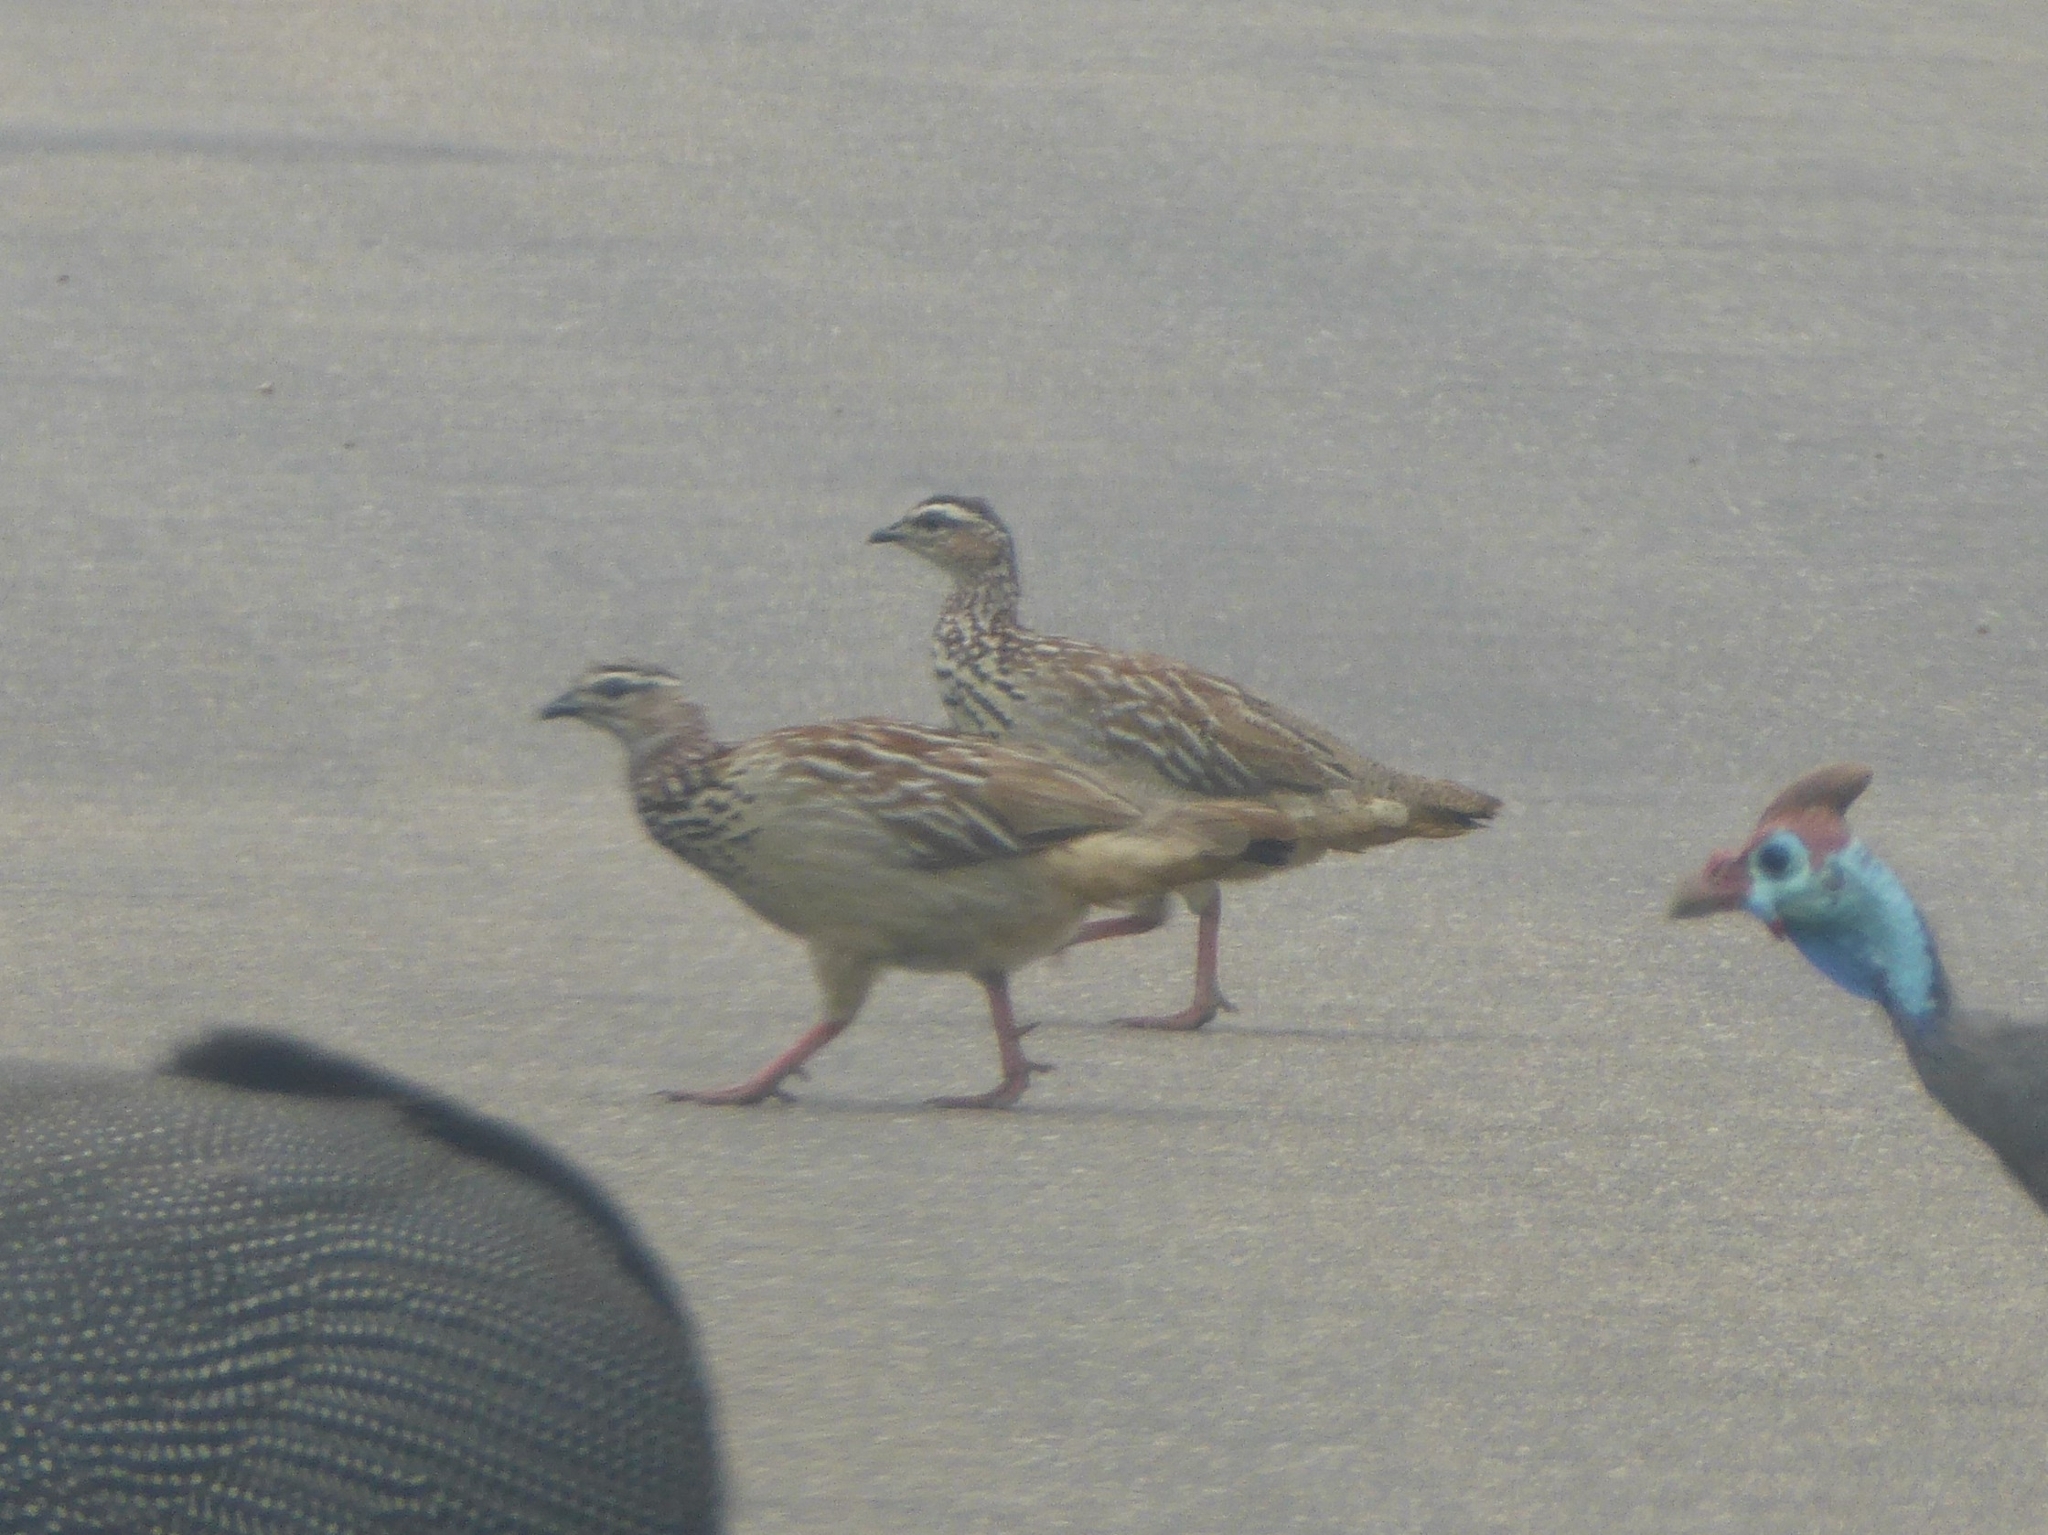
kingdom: Animalia
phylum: Chordata
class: Aves
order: Galliformes
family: Phasianidae
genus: Ortygornis
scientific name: Ortygornis sephaena
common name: Crested francolin
